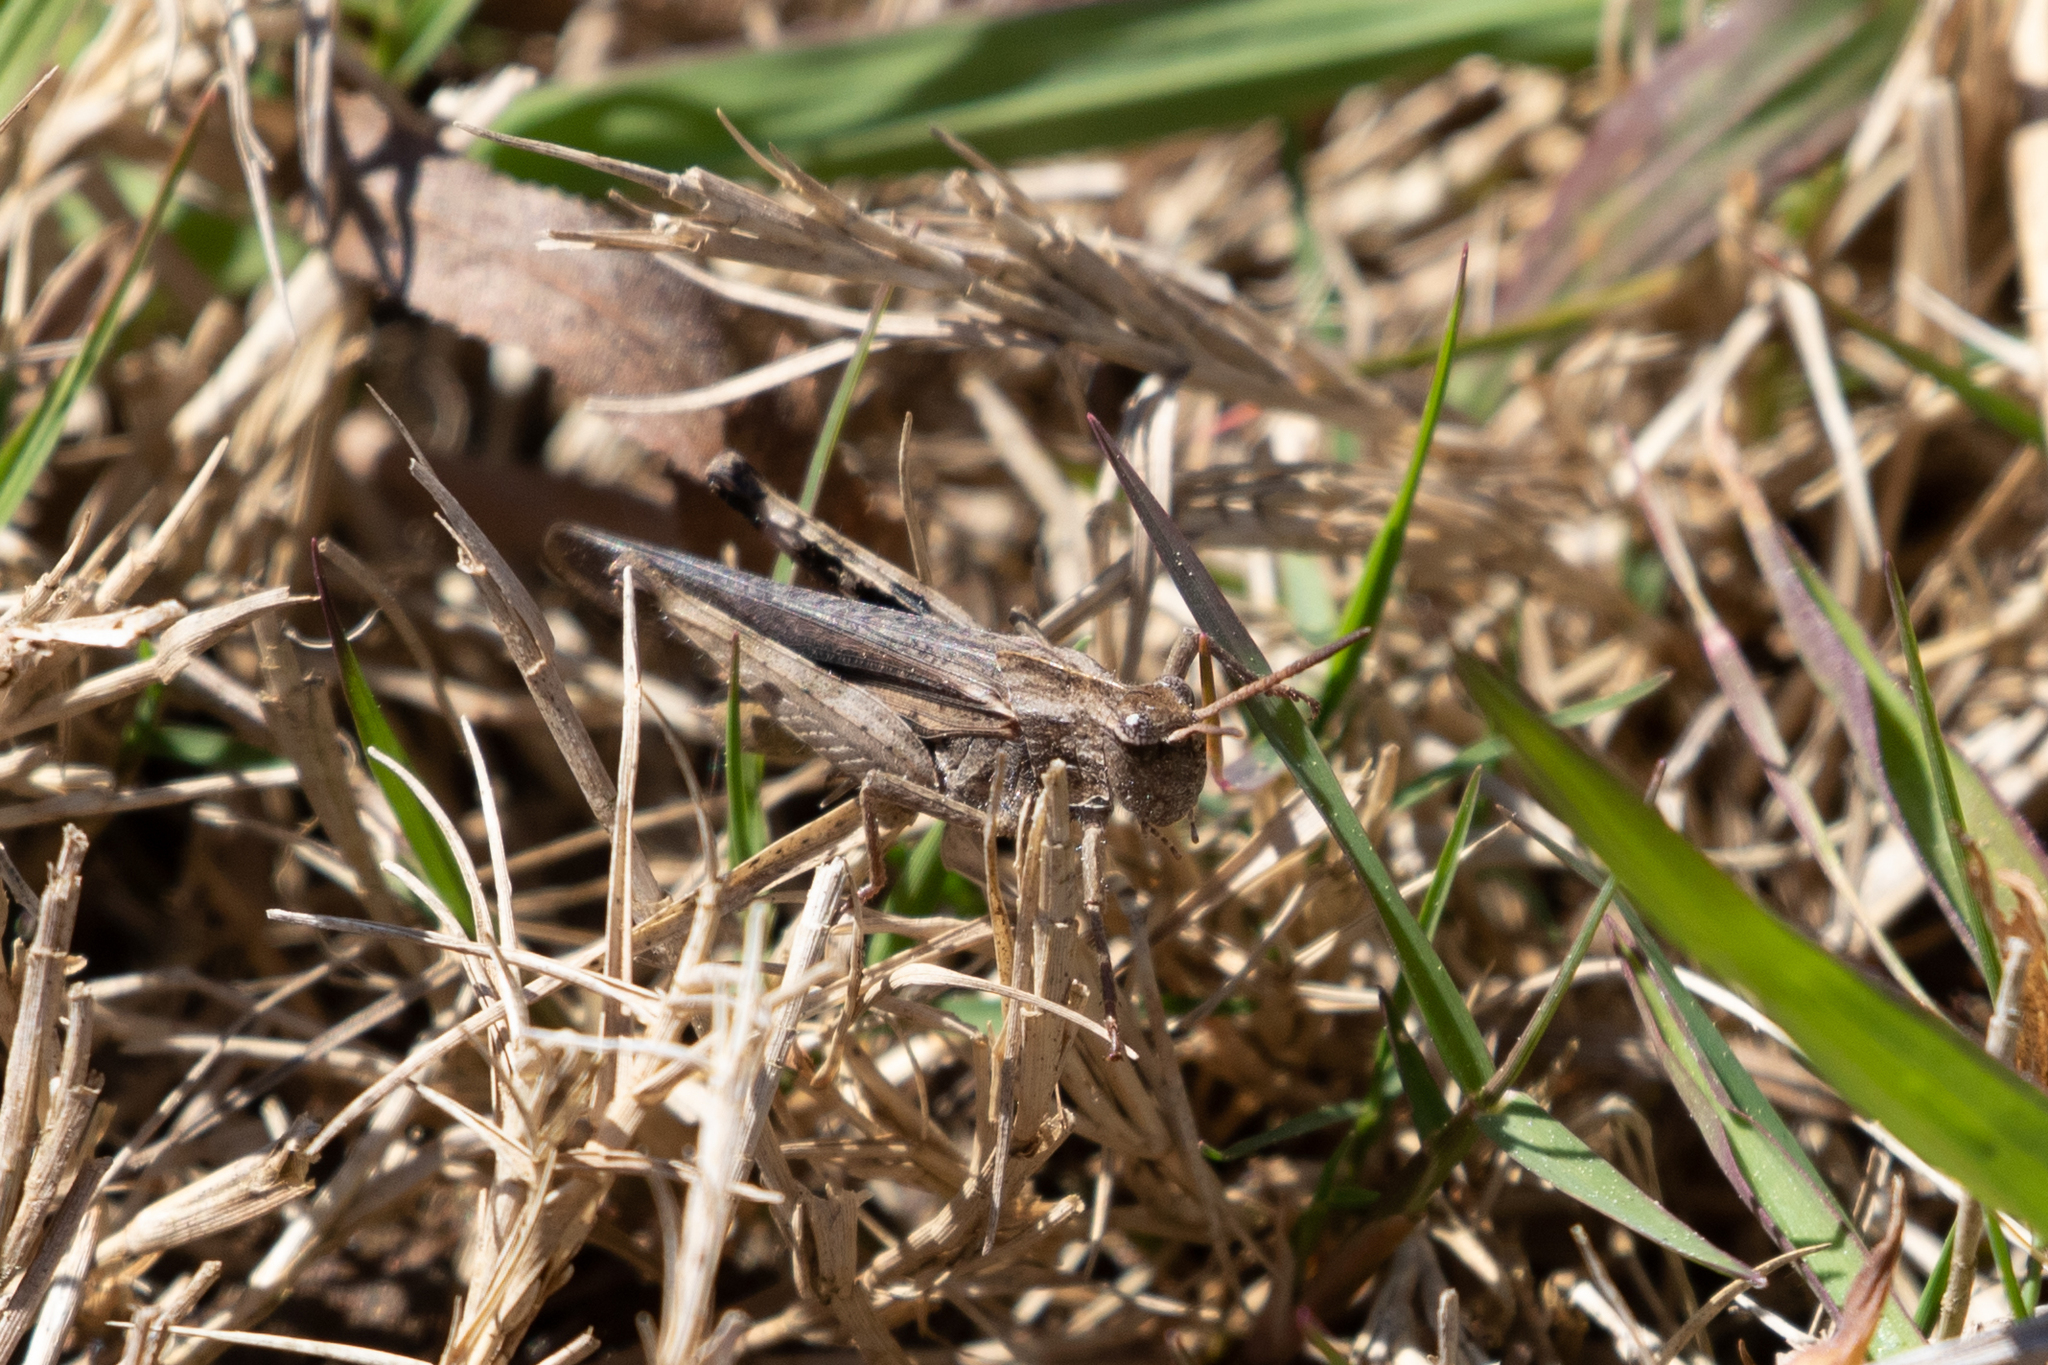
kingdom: Animalia
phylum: Arthropoda
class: Insecta
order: Orthoptera
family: Acrididae
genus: Chortophaga
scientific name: Chortophaga viridifasciata
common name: Green-striped grasshopper
